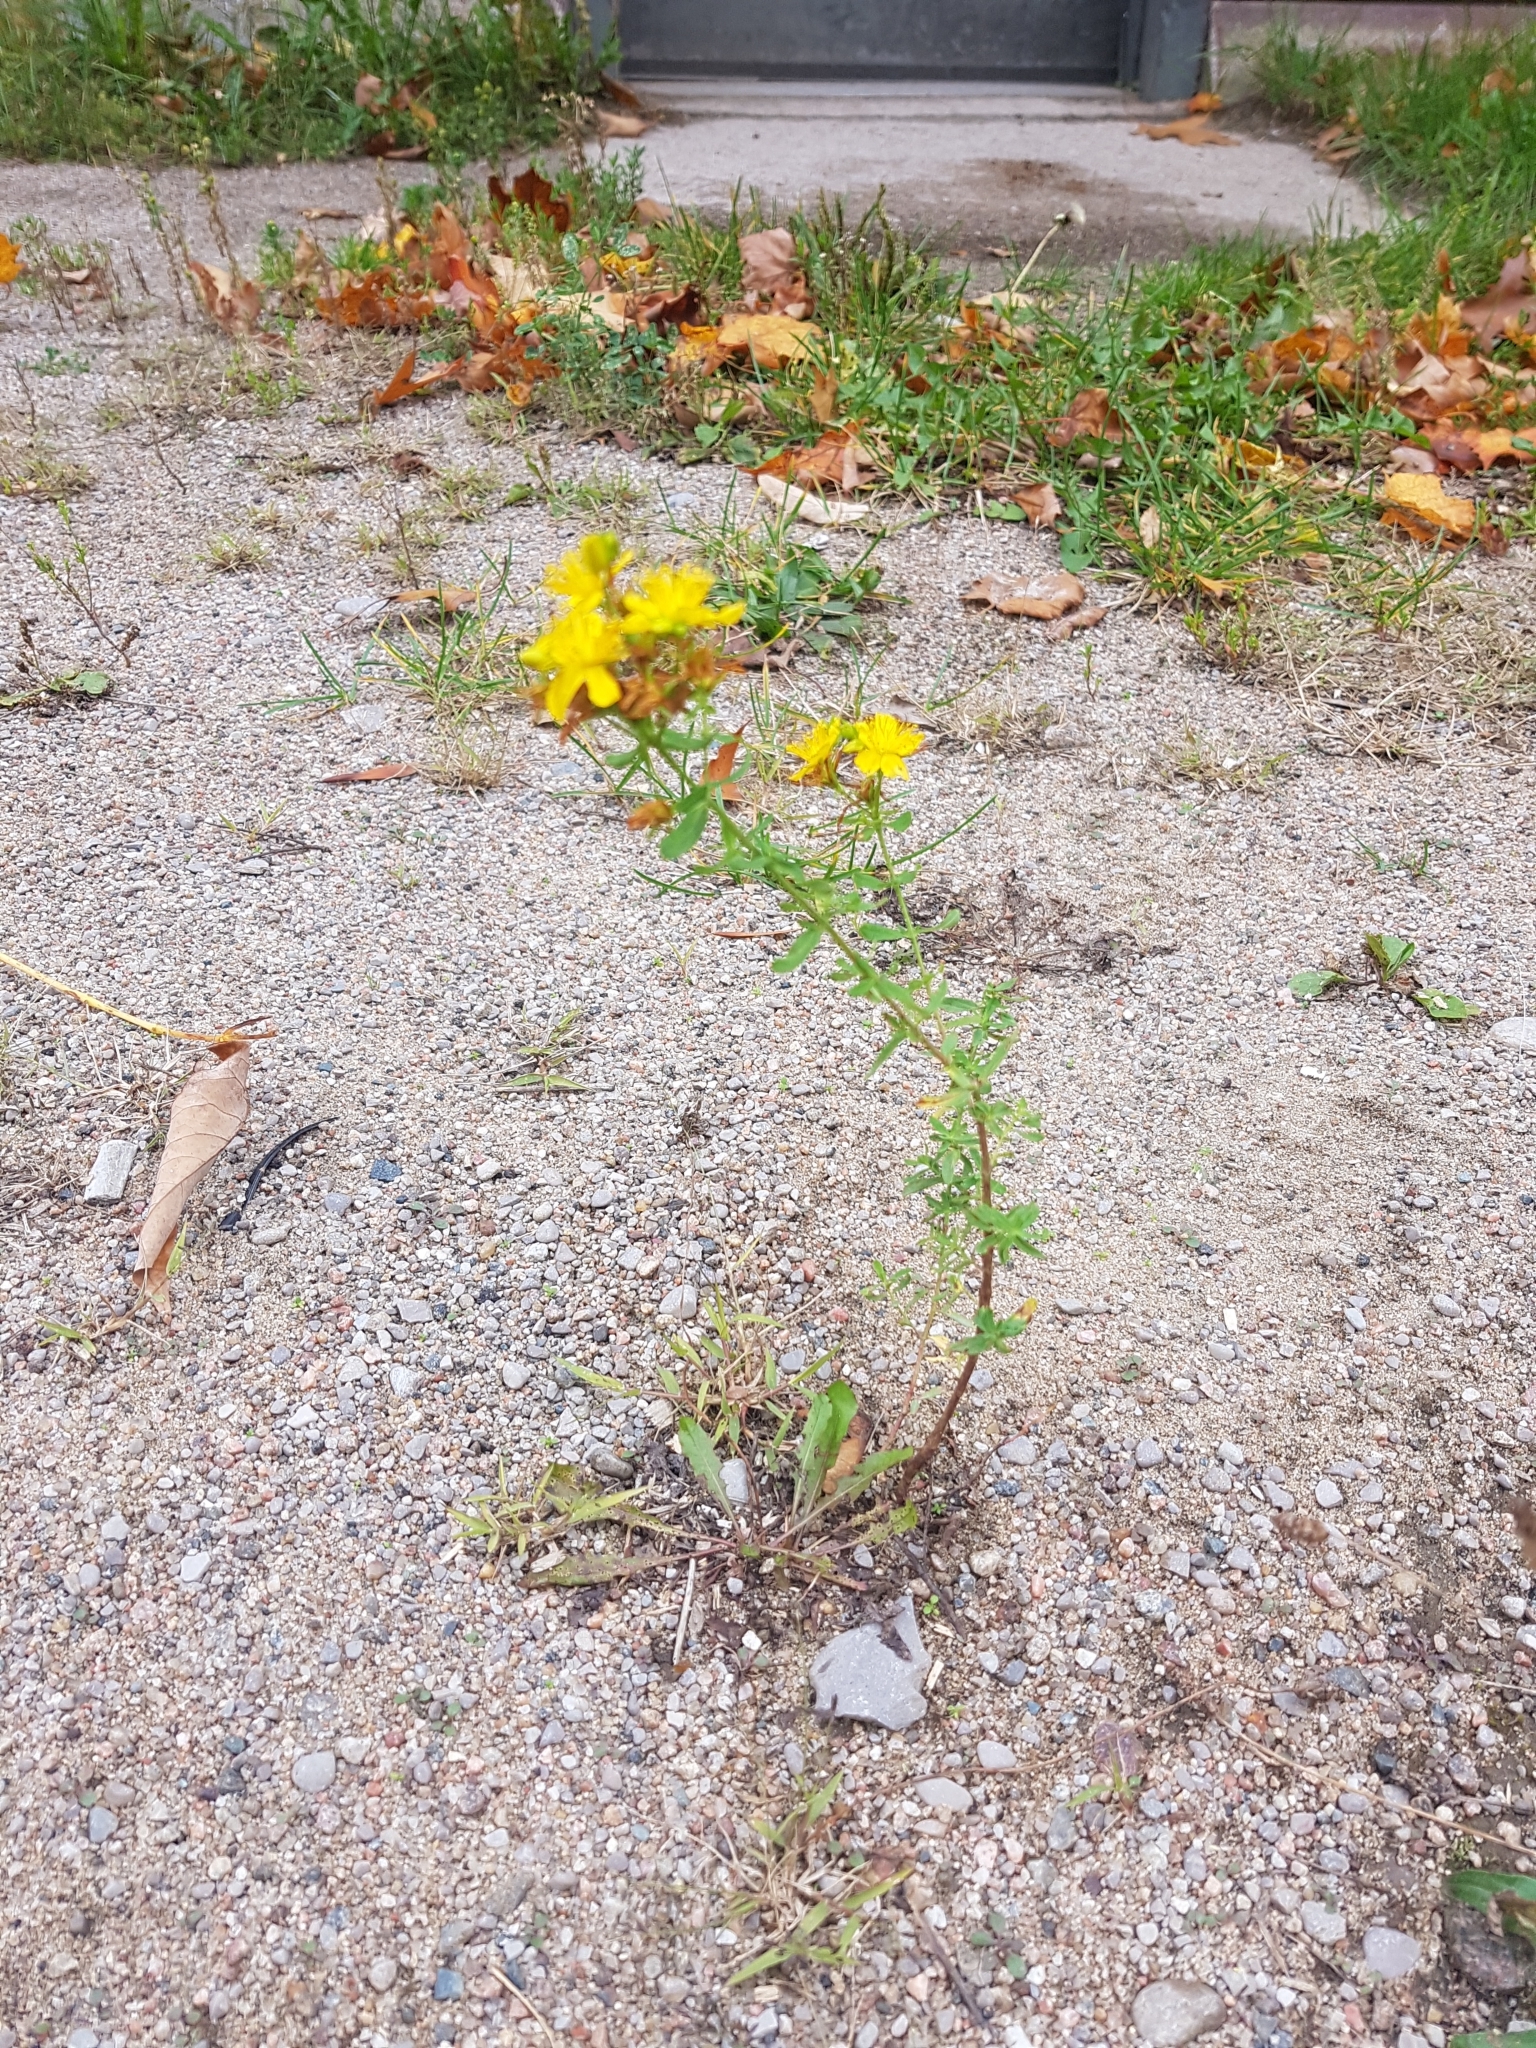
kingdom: Plantae
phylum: Tracheophyta
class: Magnoliopsida
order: Malpighiales
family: Hypericaceae
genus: Hypericum
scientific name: Hypericum perforatum
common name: Common st. johnswort
